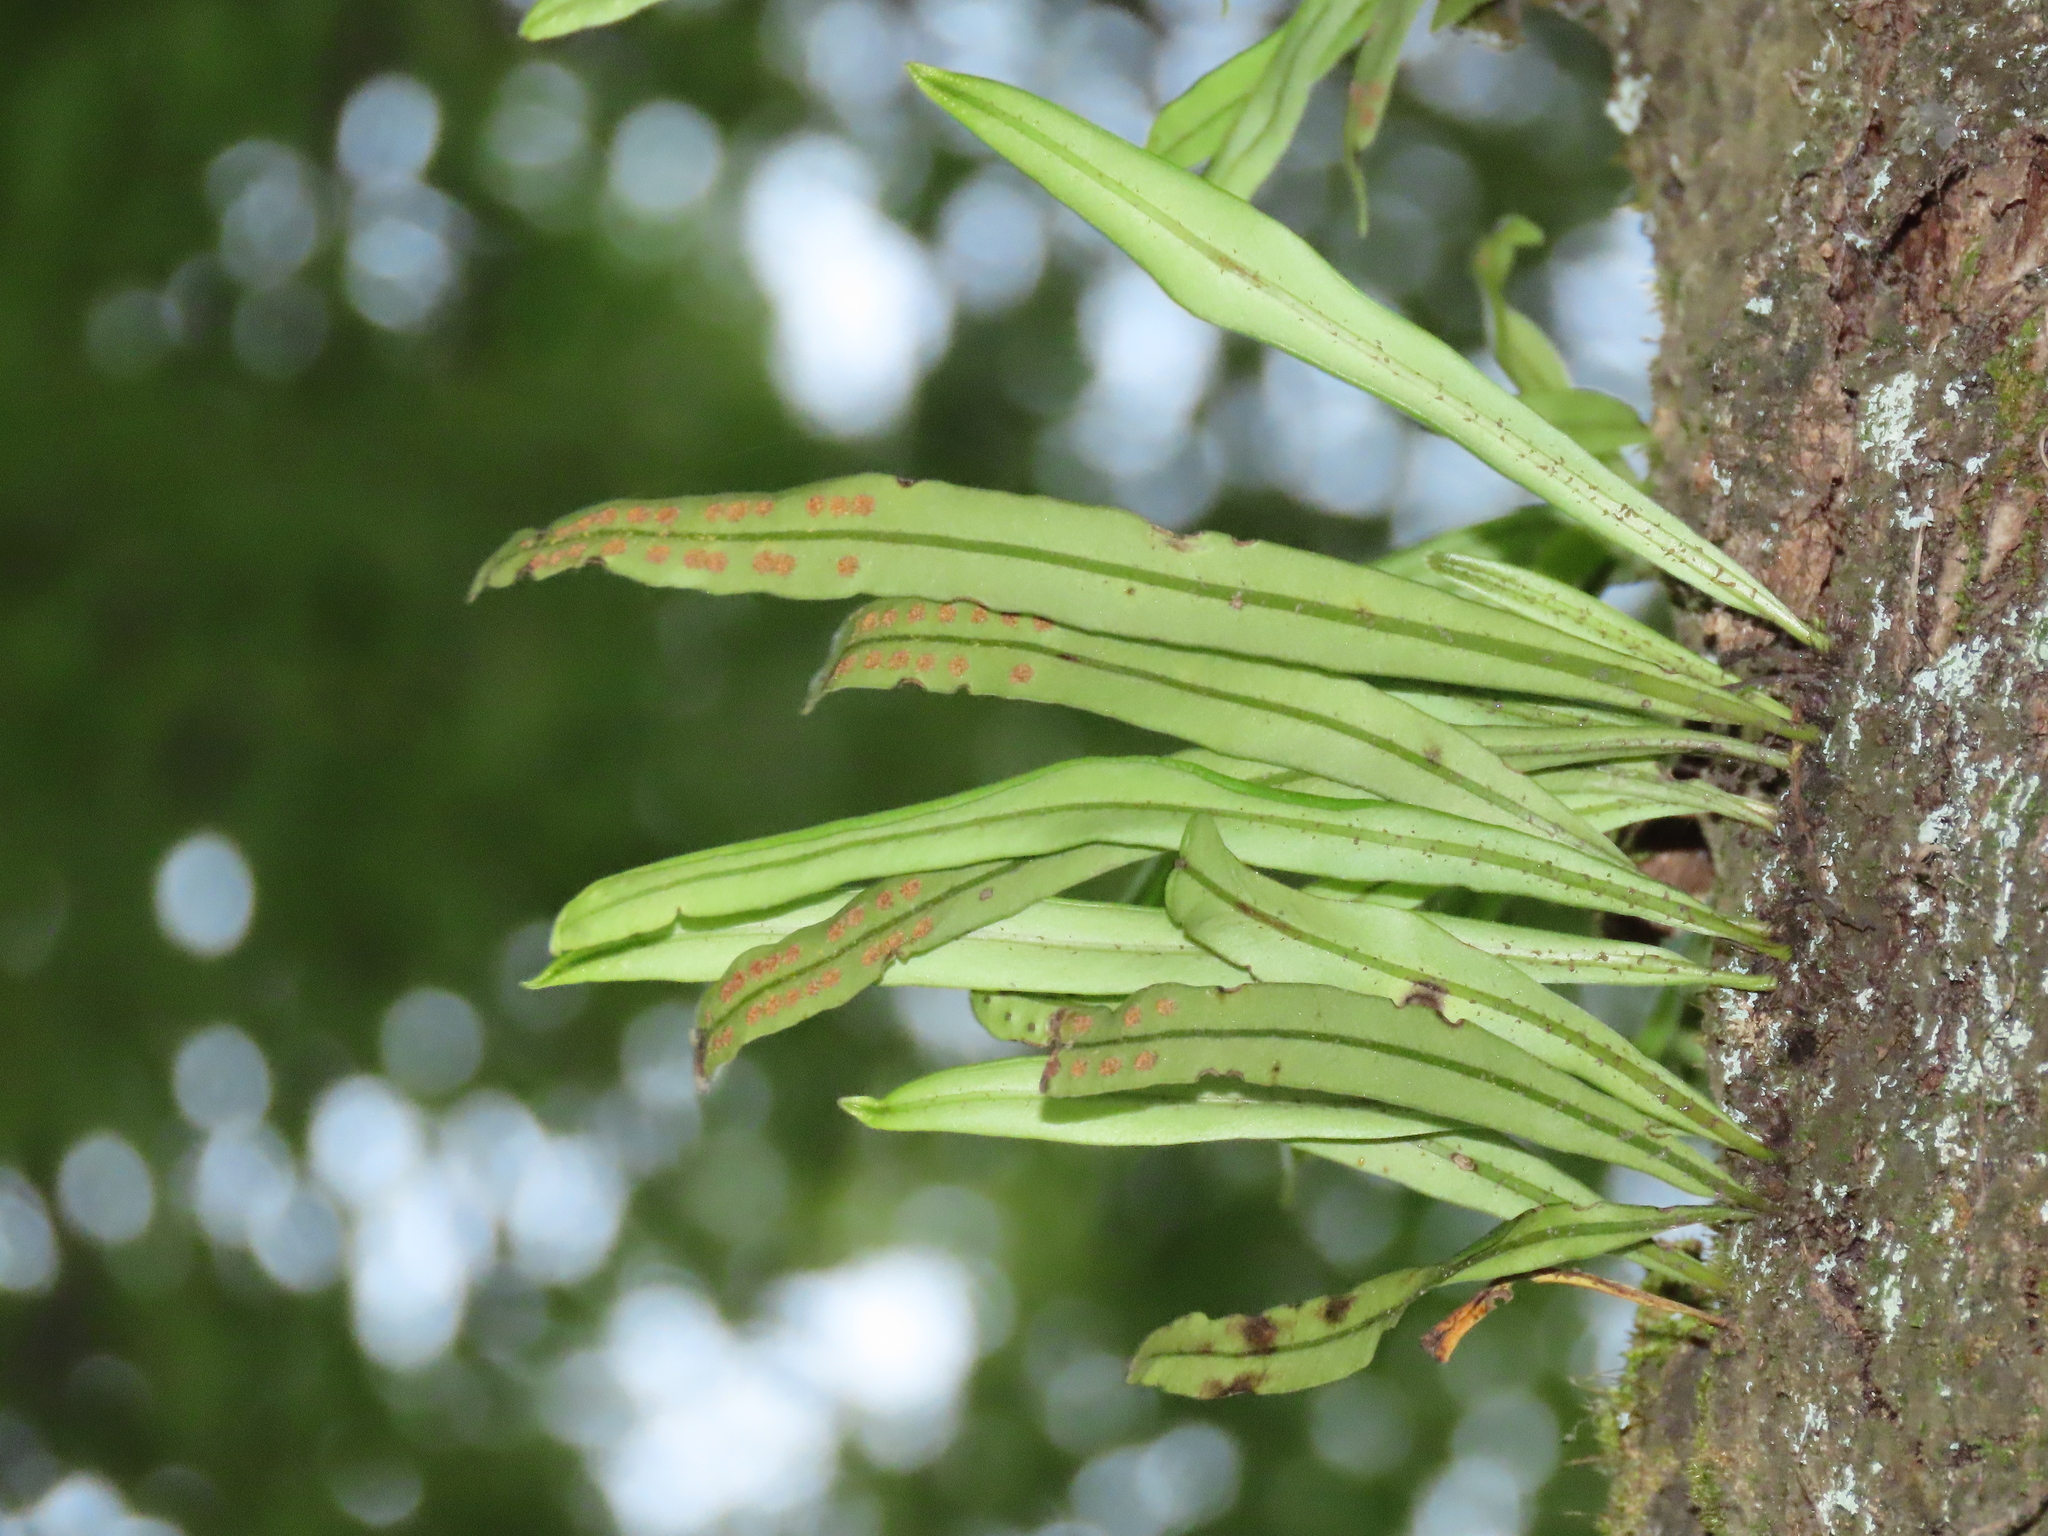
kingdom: Plantae
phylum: Tracheophyta
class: Polypodiopsida
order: Polypodiales
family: Polypodiaceae
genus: Lepisorus
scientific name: Lepisorus thunbergianus
